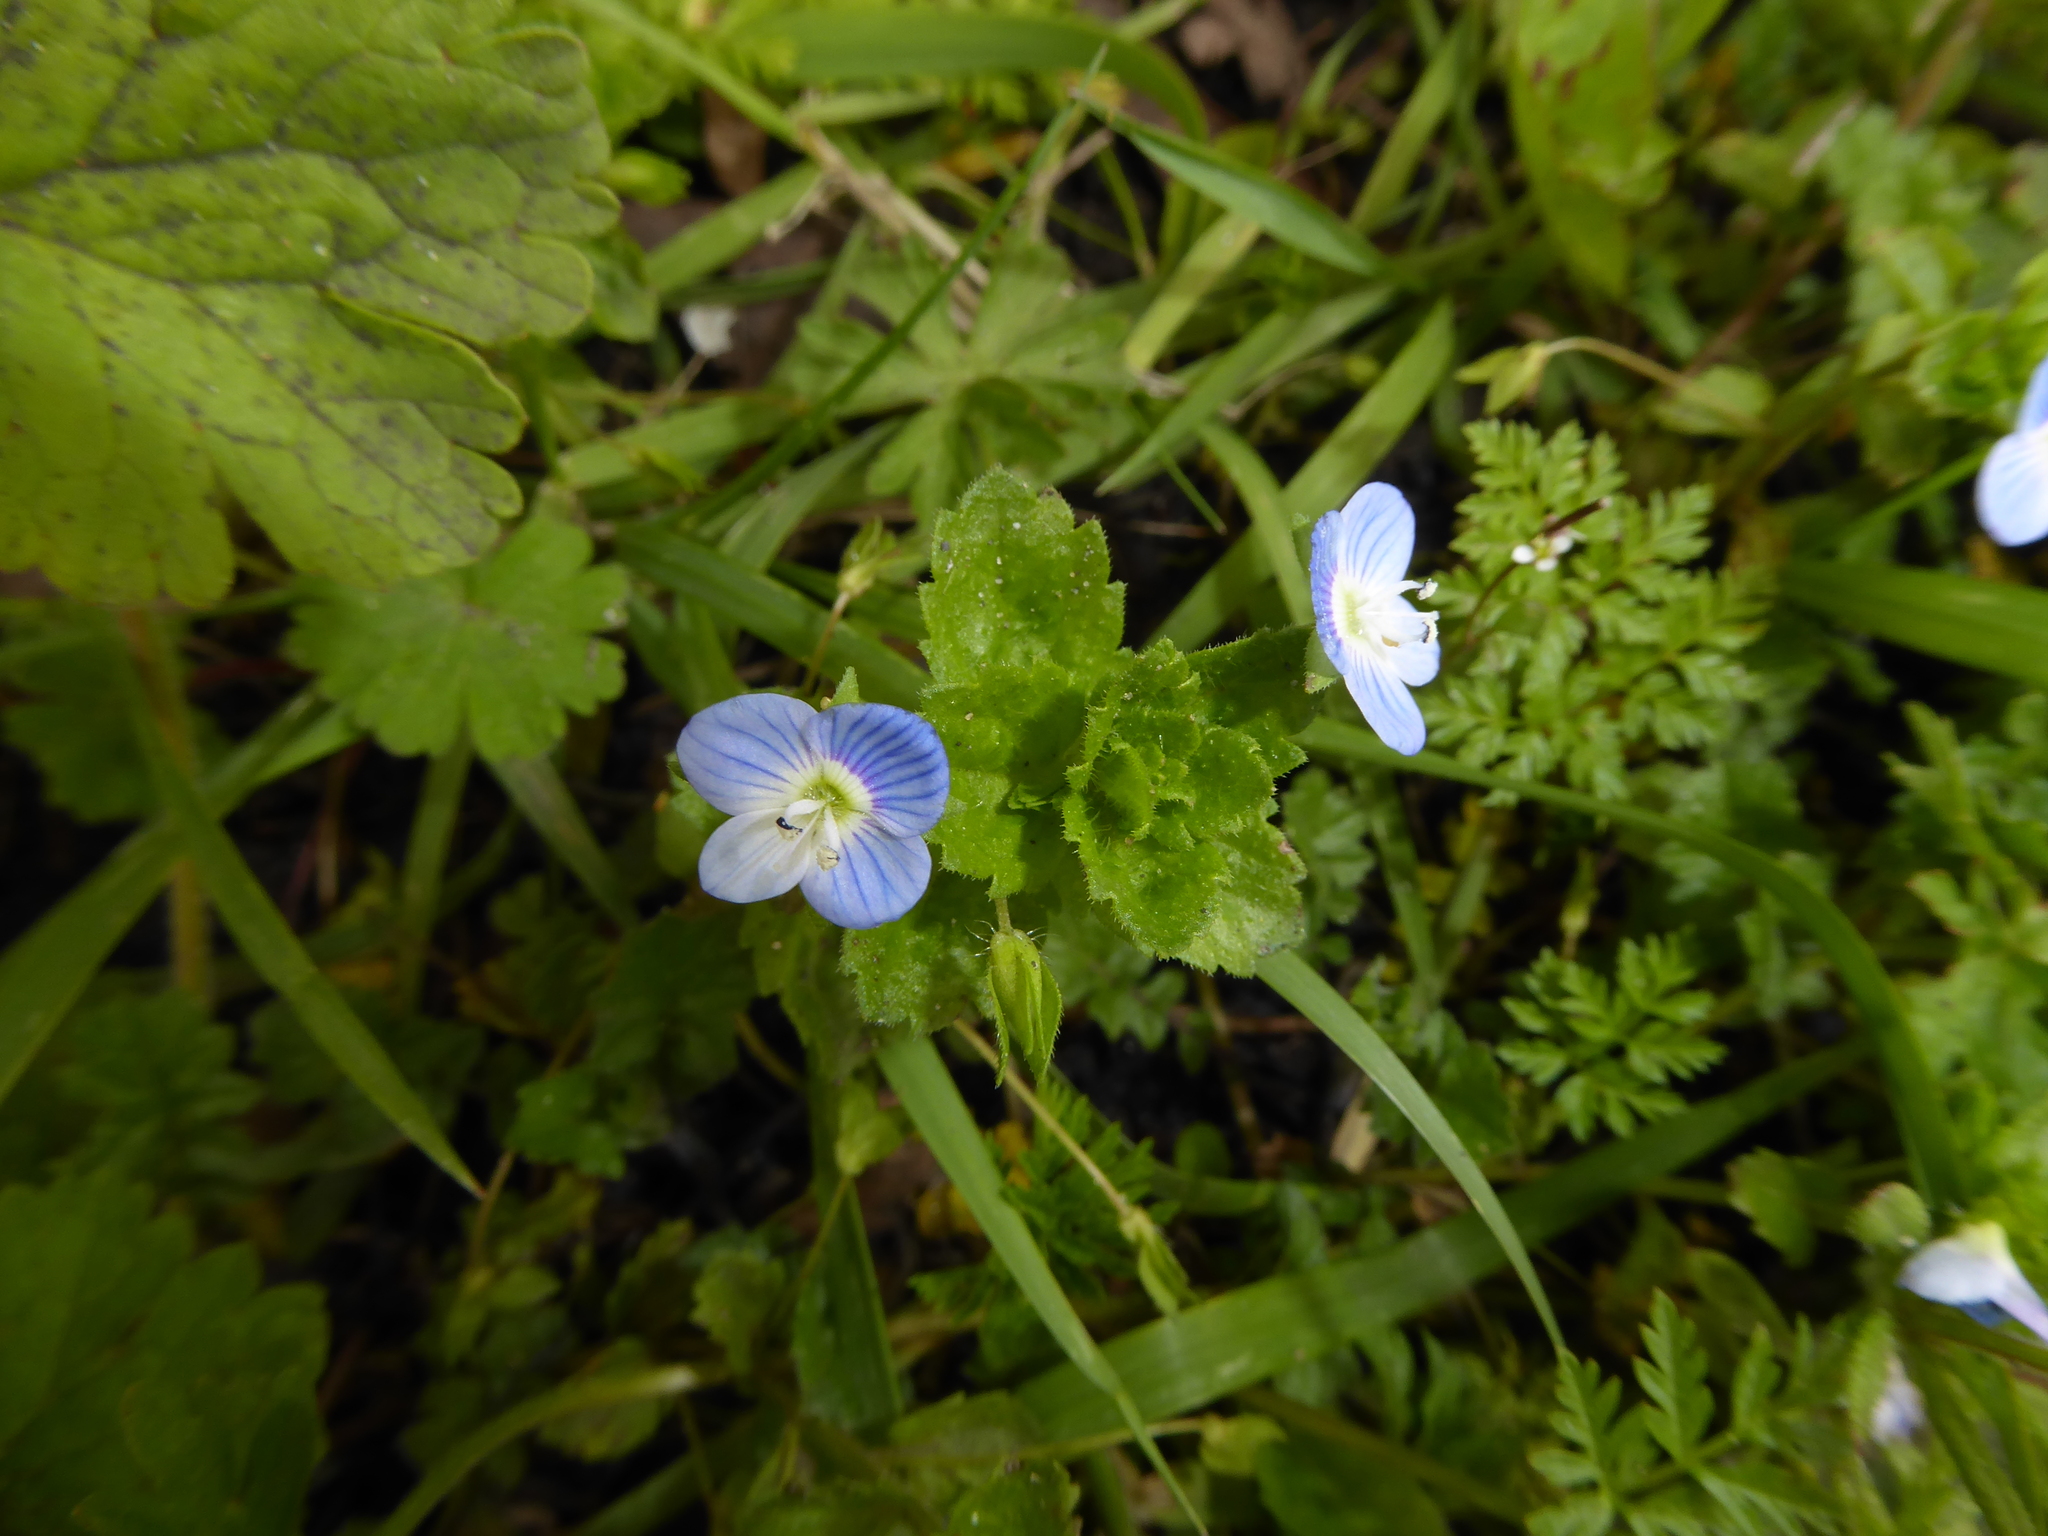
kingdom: Plantae
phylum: Tracheophyta
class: Magnoliopsida
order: Lamiales
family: Plantaginaceae
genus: Veronica
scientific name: Veronica persica
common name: Common field-speedwell
